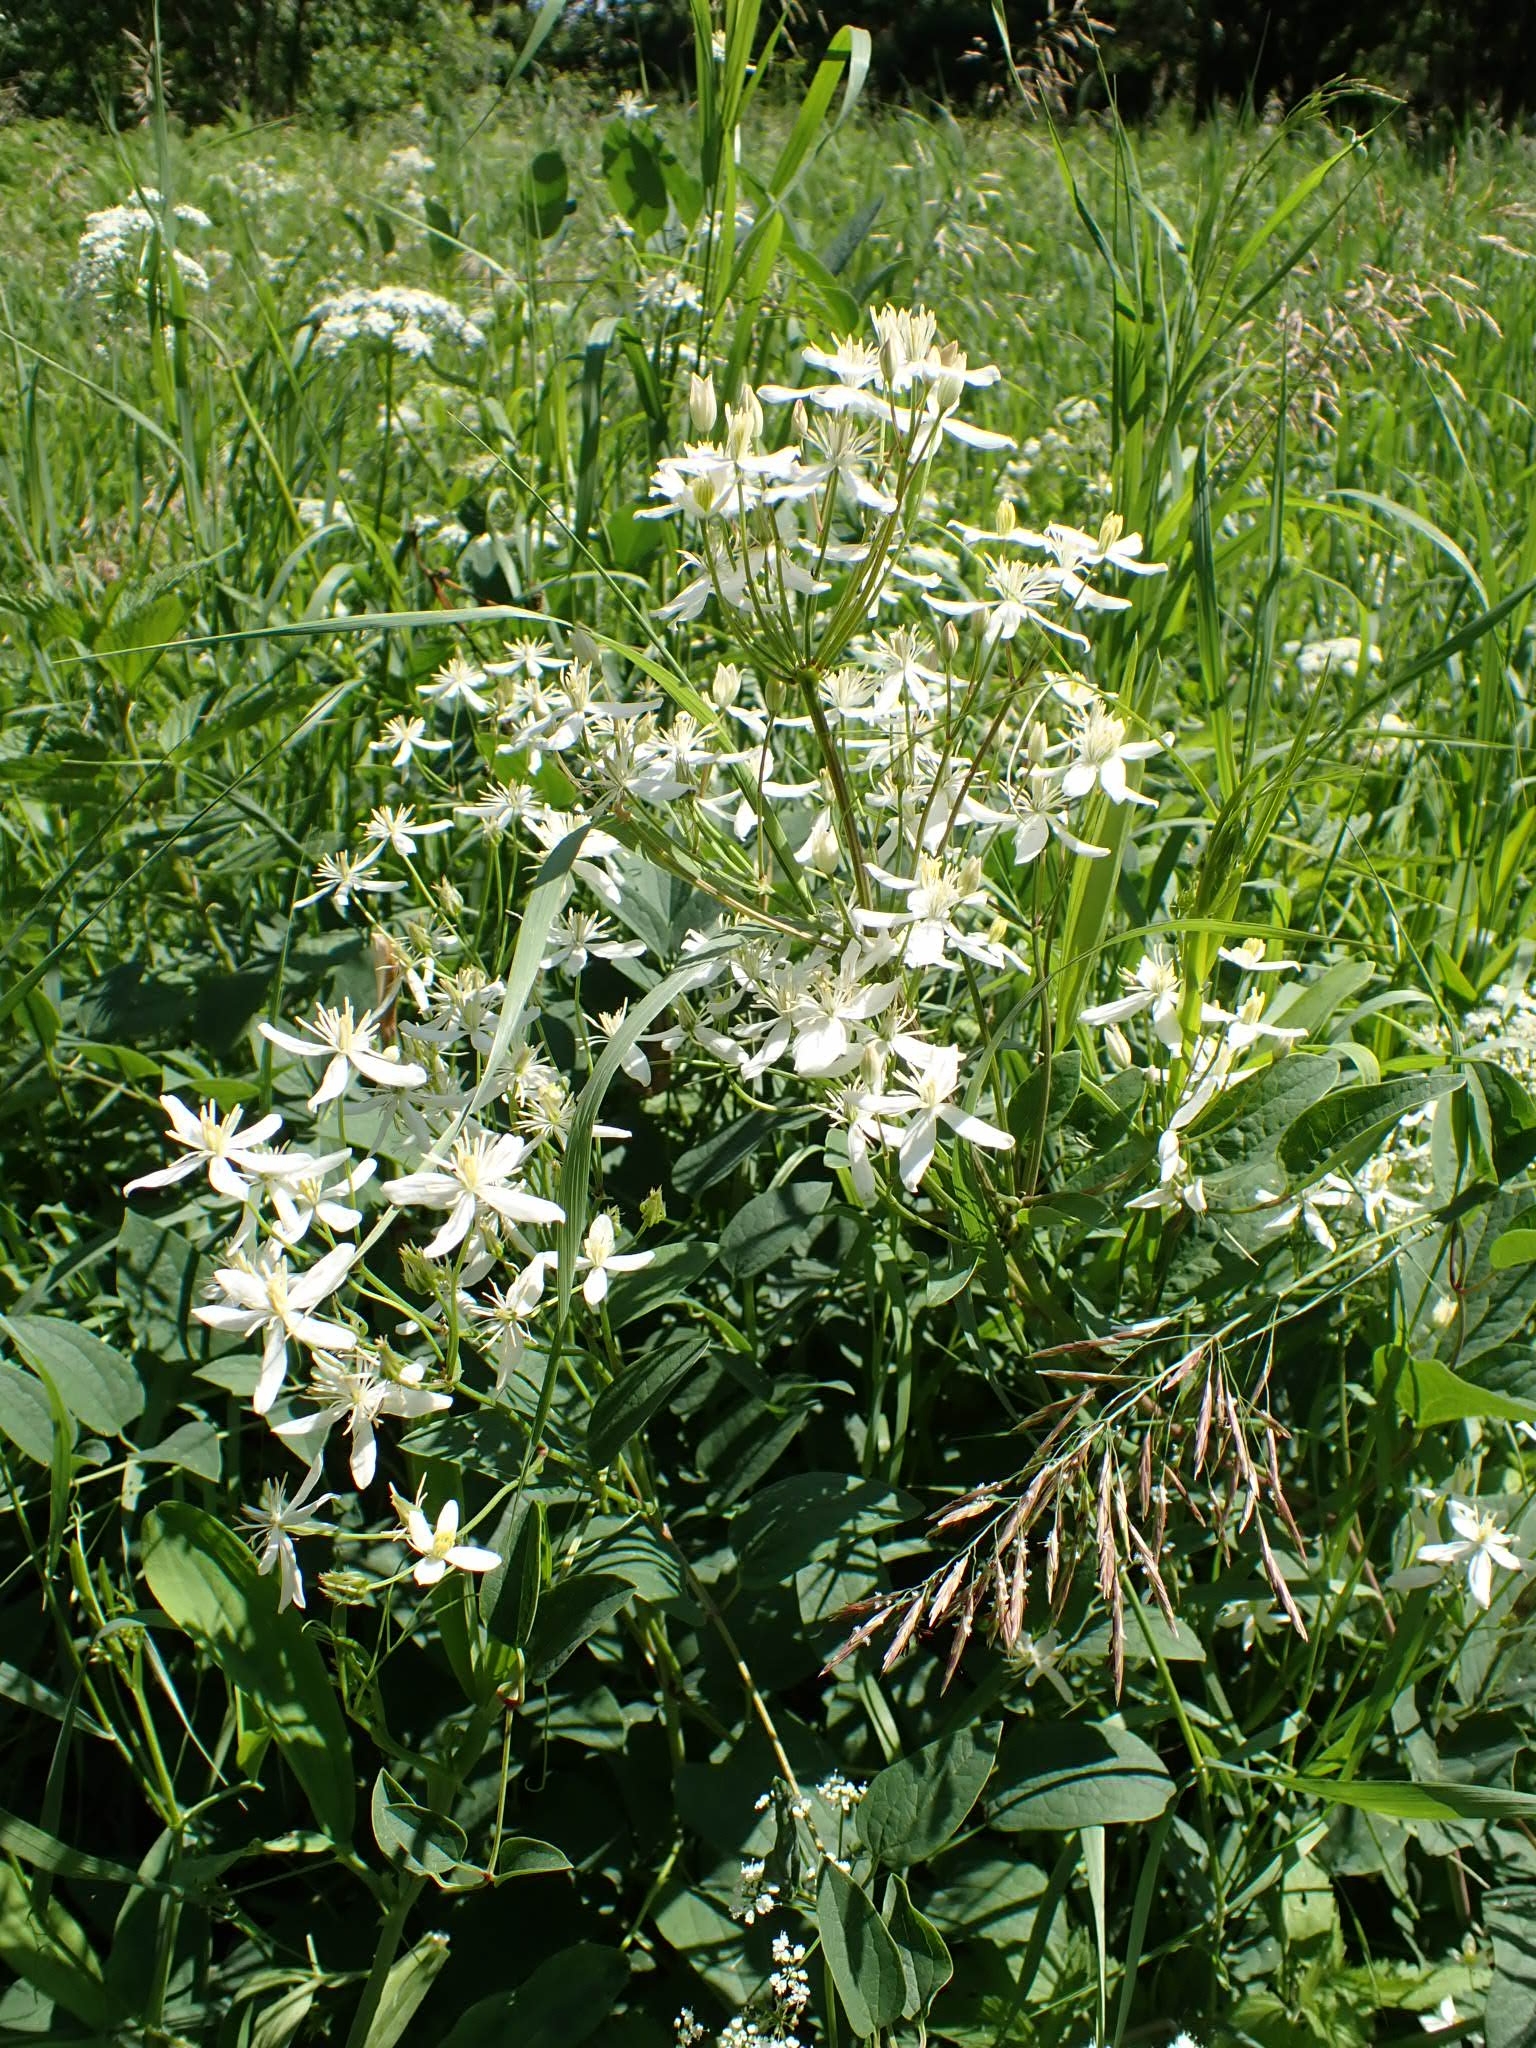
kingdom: Plantae
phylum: Tracheophyta
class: Magnoliopsida
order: Ranunculales
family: Ranunculaceae
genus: Clematis
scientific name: Clematis terniflora
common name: Sweet autumn clematis
